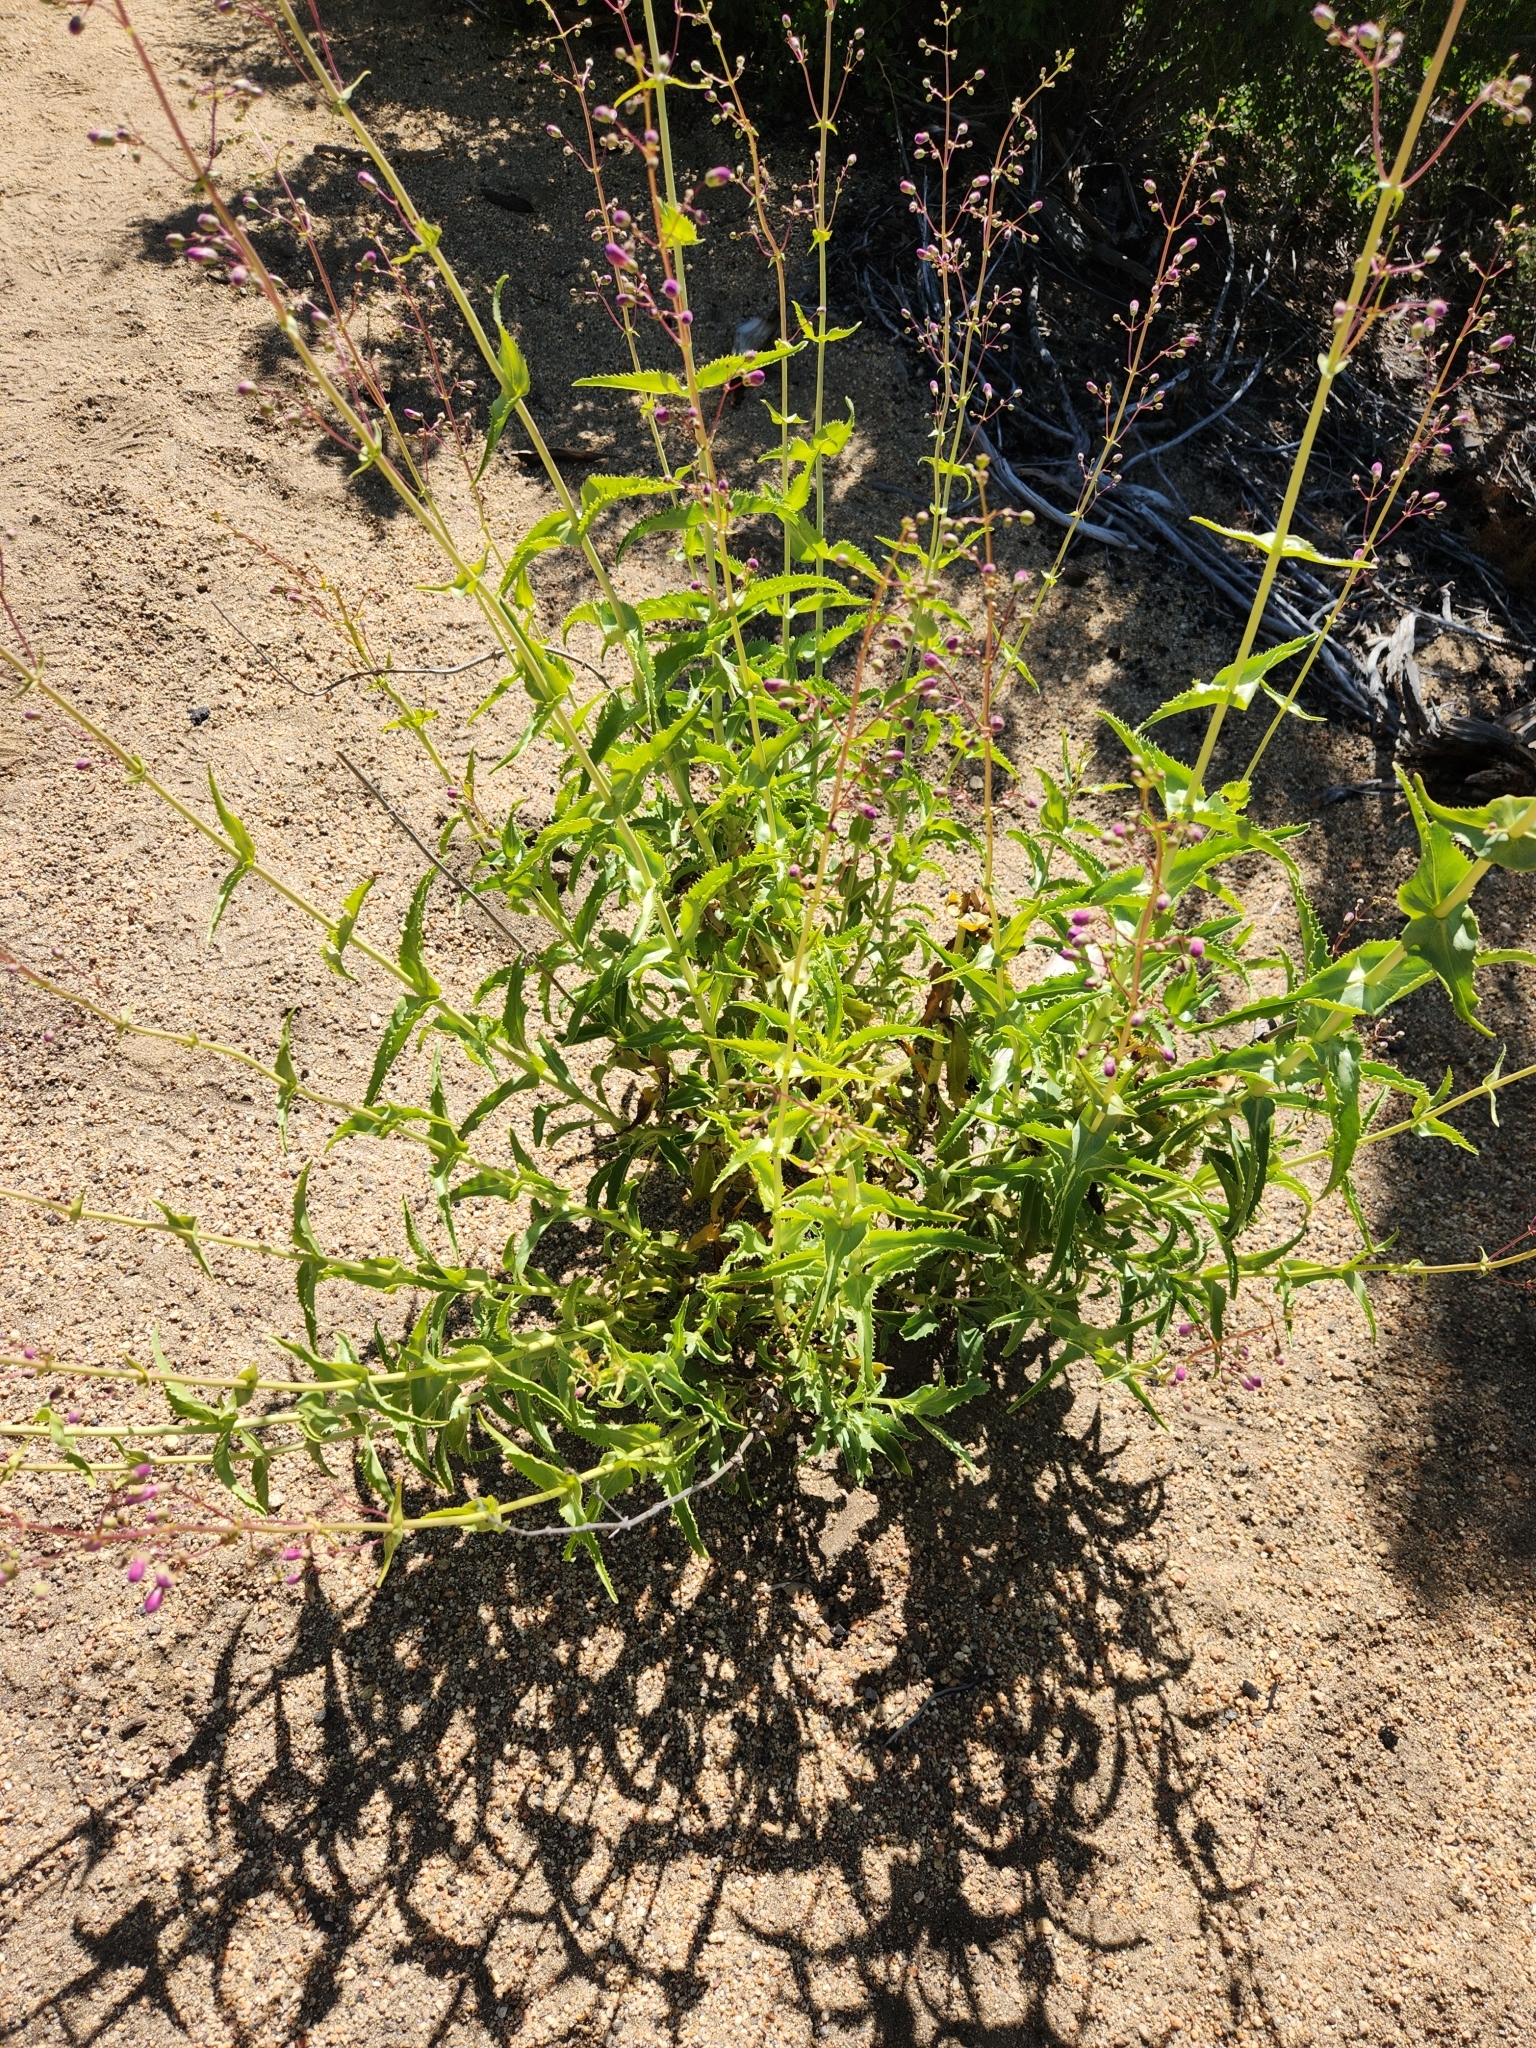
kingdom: Plantae
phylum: Tracheophyta
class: Magnoliopsida
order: Lamiales
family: Plantaginaceae
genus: Penstemon
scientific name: Penstemon spectabilis
